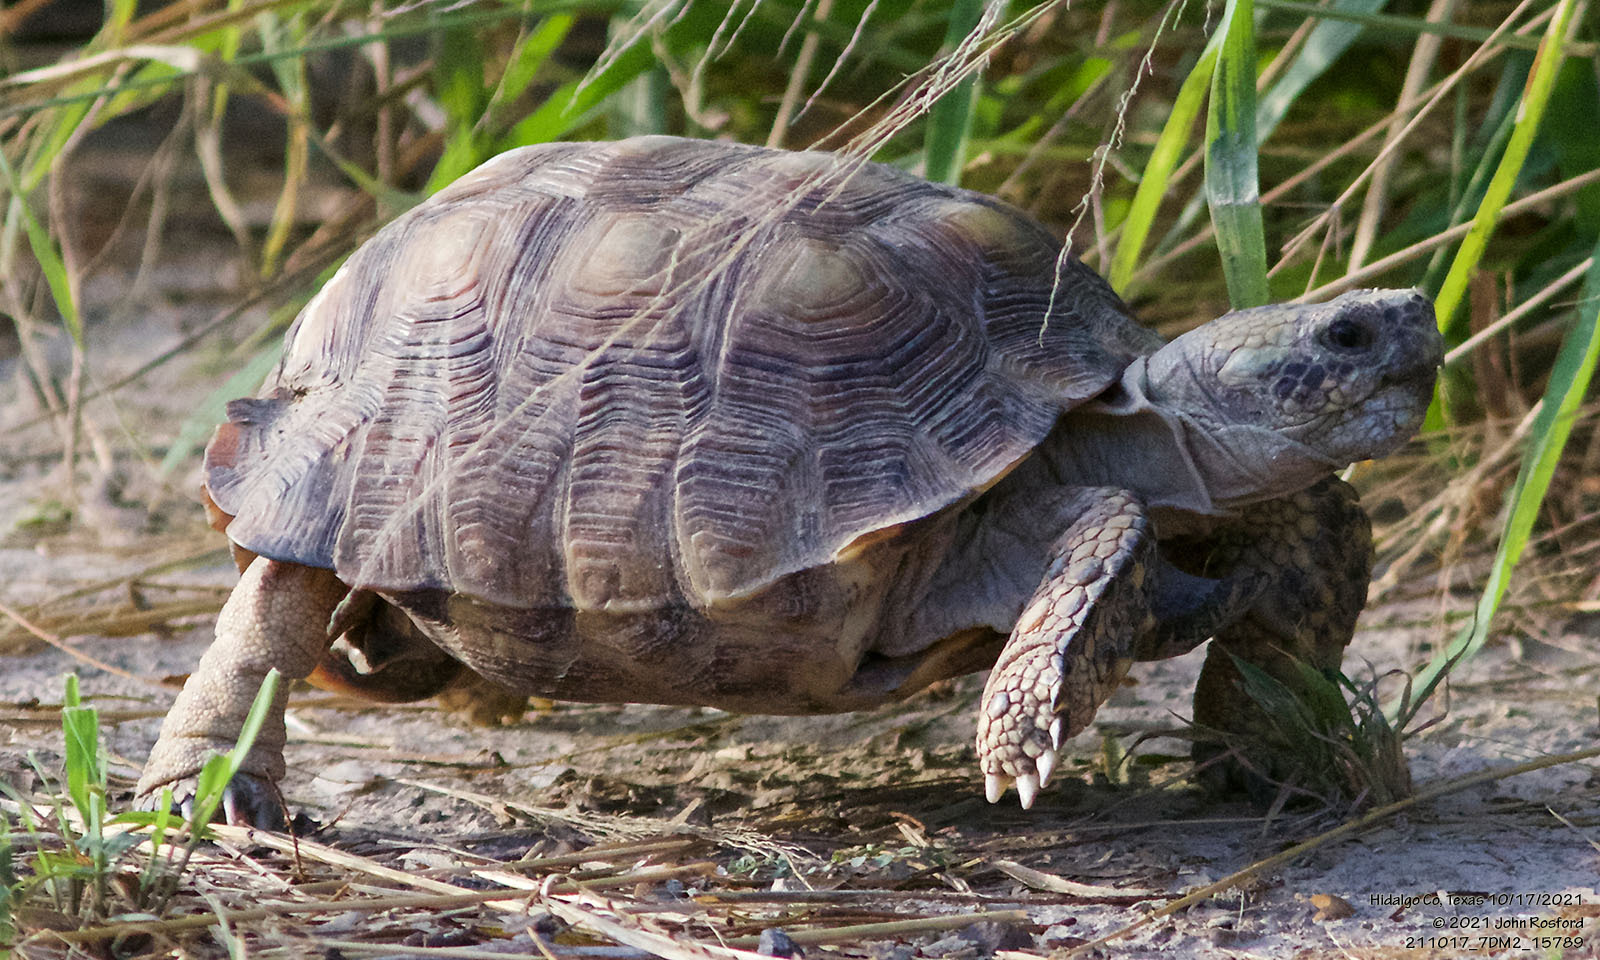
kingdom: Animalia
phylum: Chordata
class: Testudines
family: Testudinidae
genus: Gopherus
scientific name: Gopherus berlandieri
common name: Texas (gopher )tortoise
